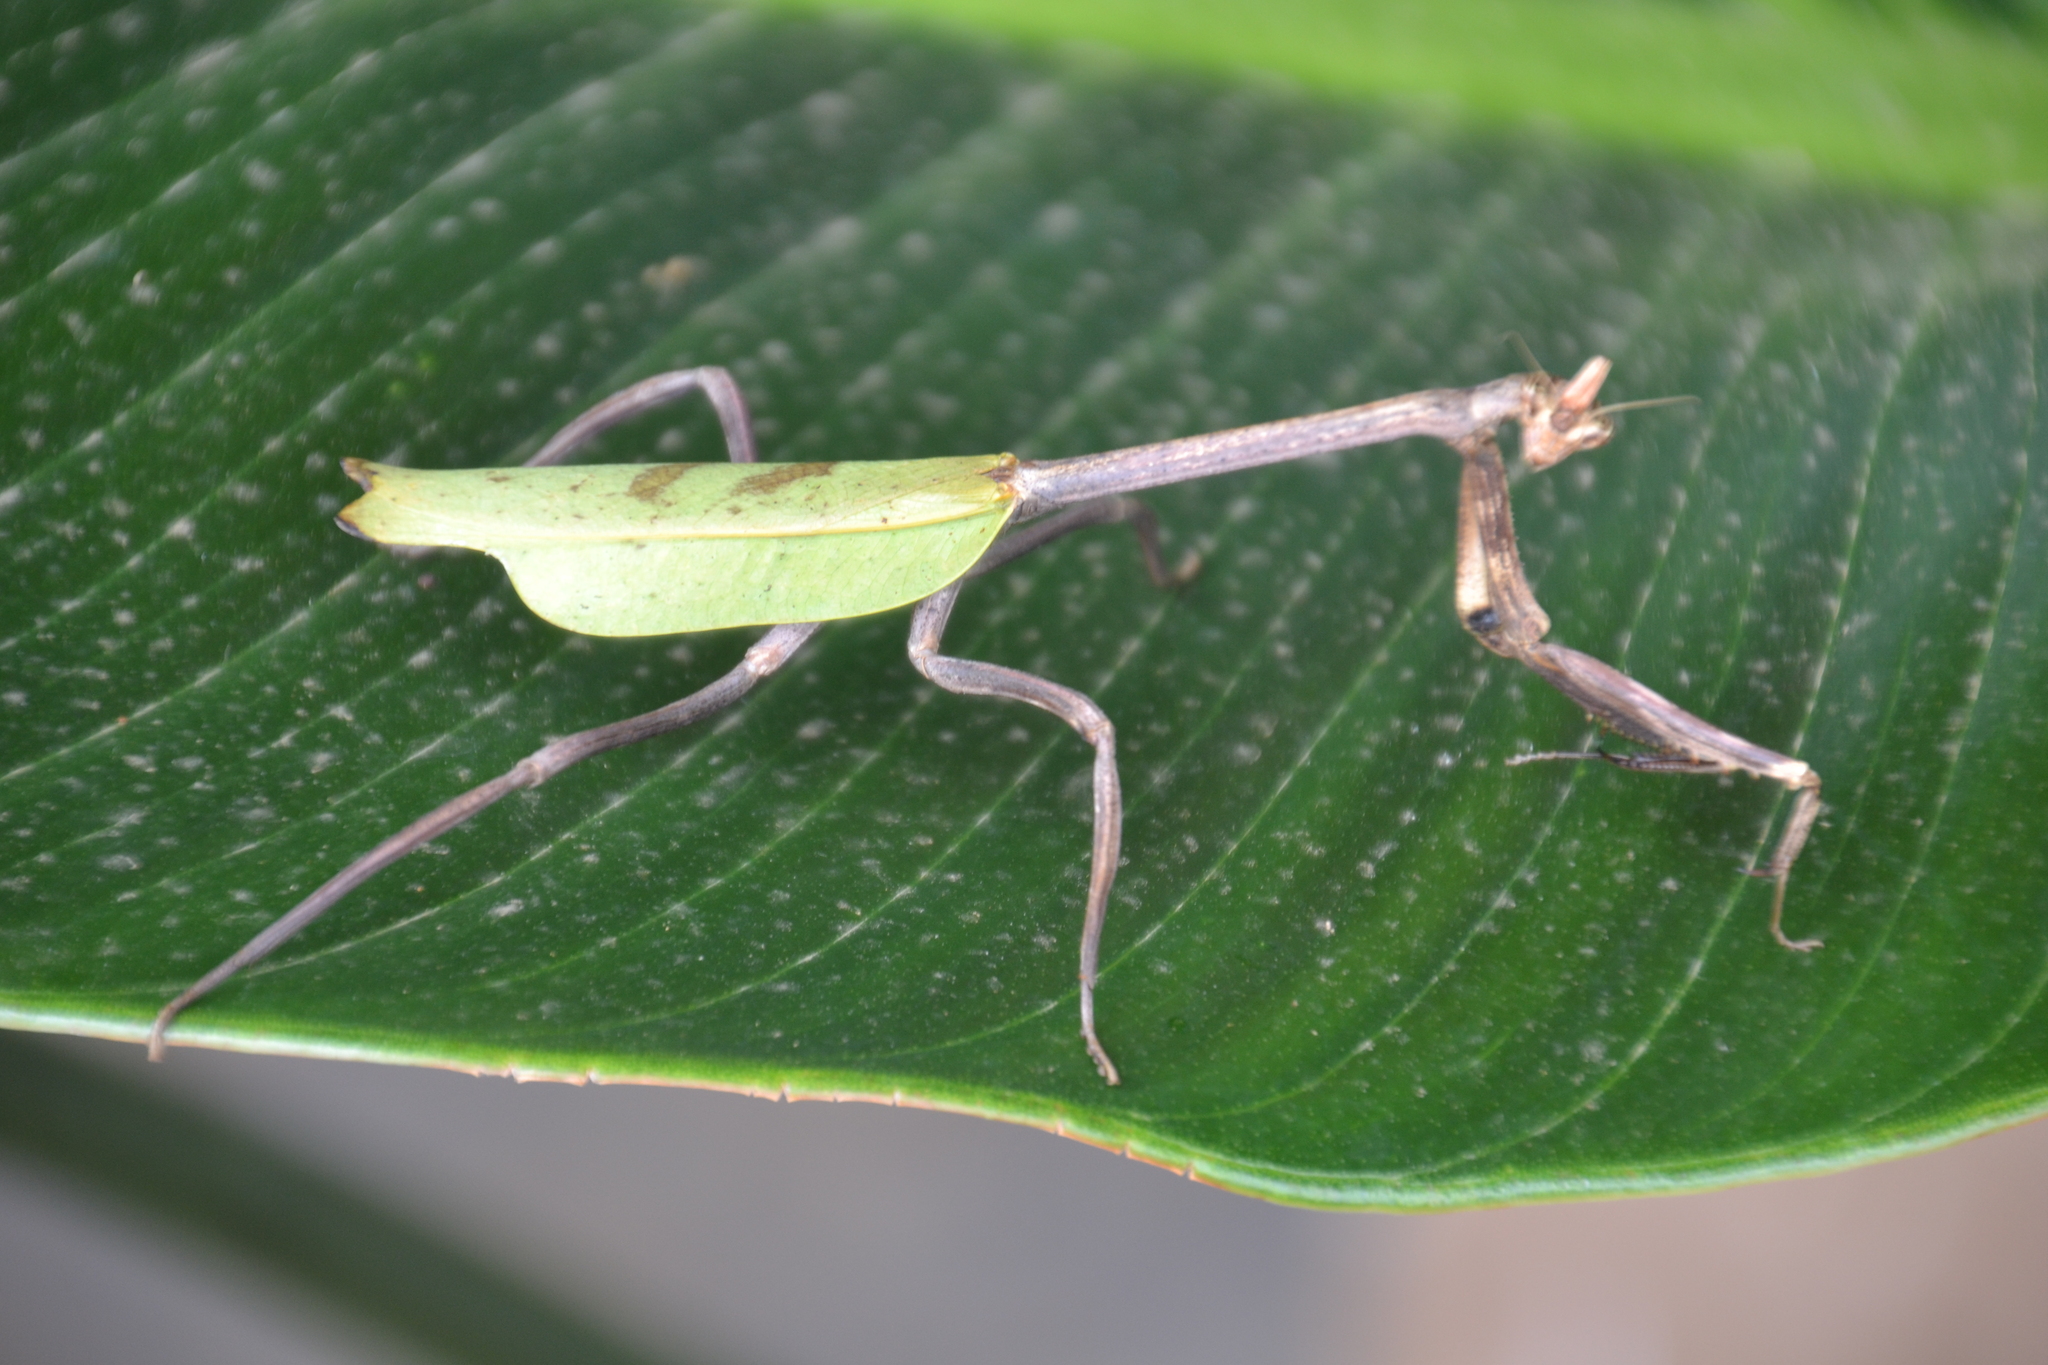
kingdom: Animalia
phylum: Arthropoda
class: Insecta
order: Mantodea
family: Mantidae
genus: Pseudovates
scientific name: Pseudovates chlorophaea
